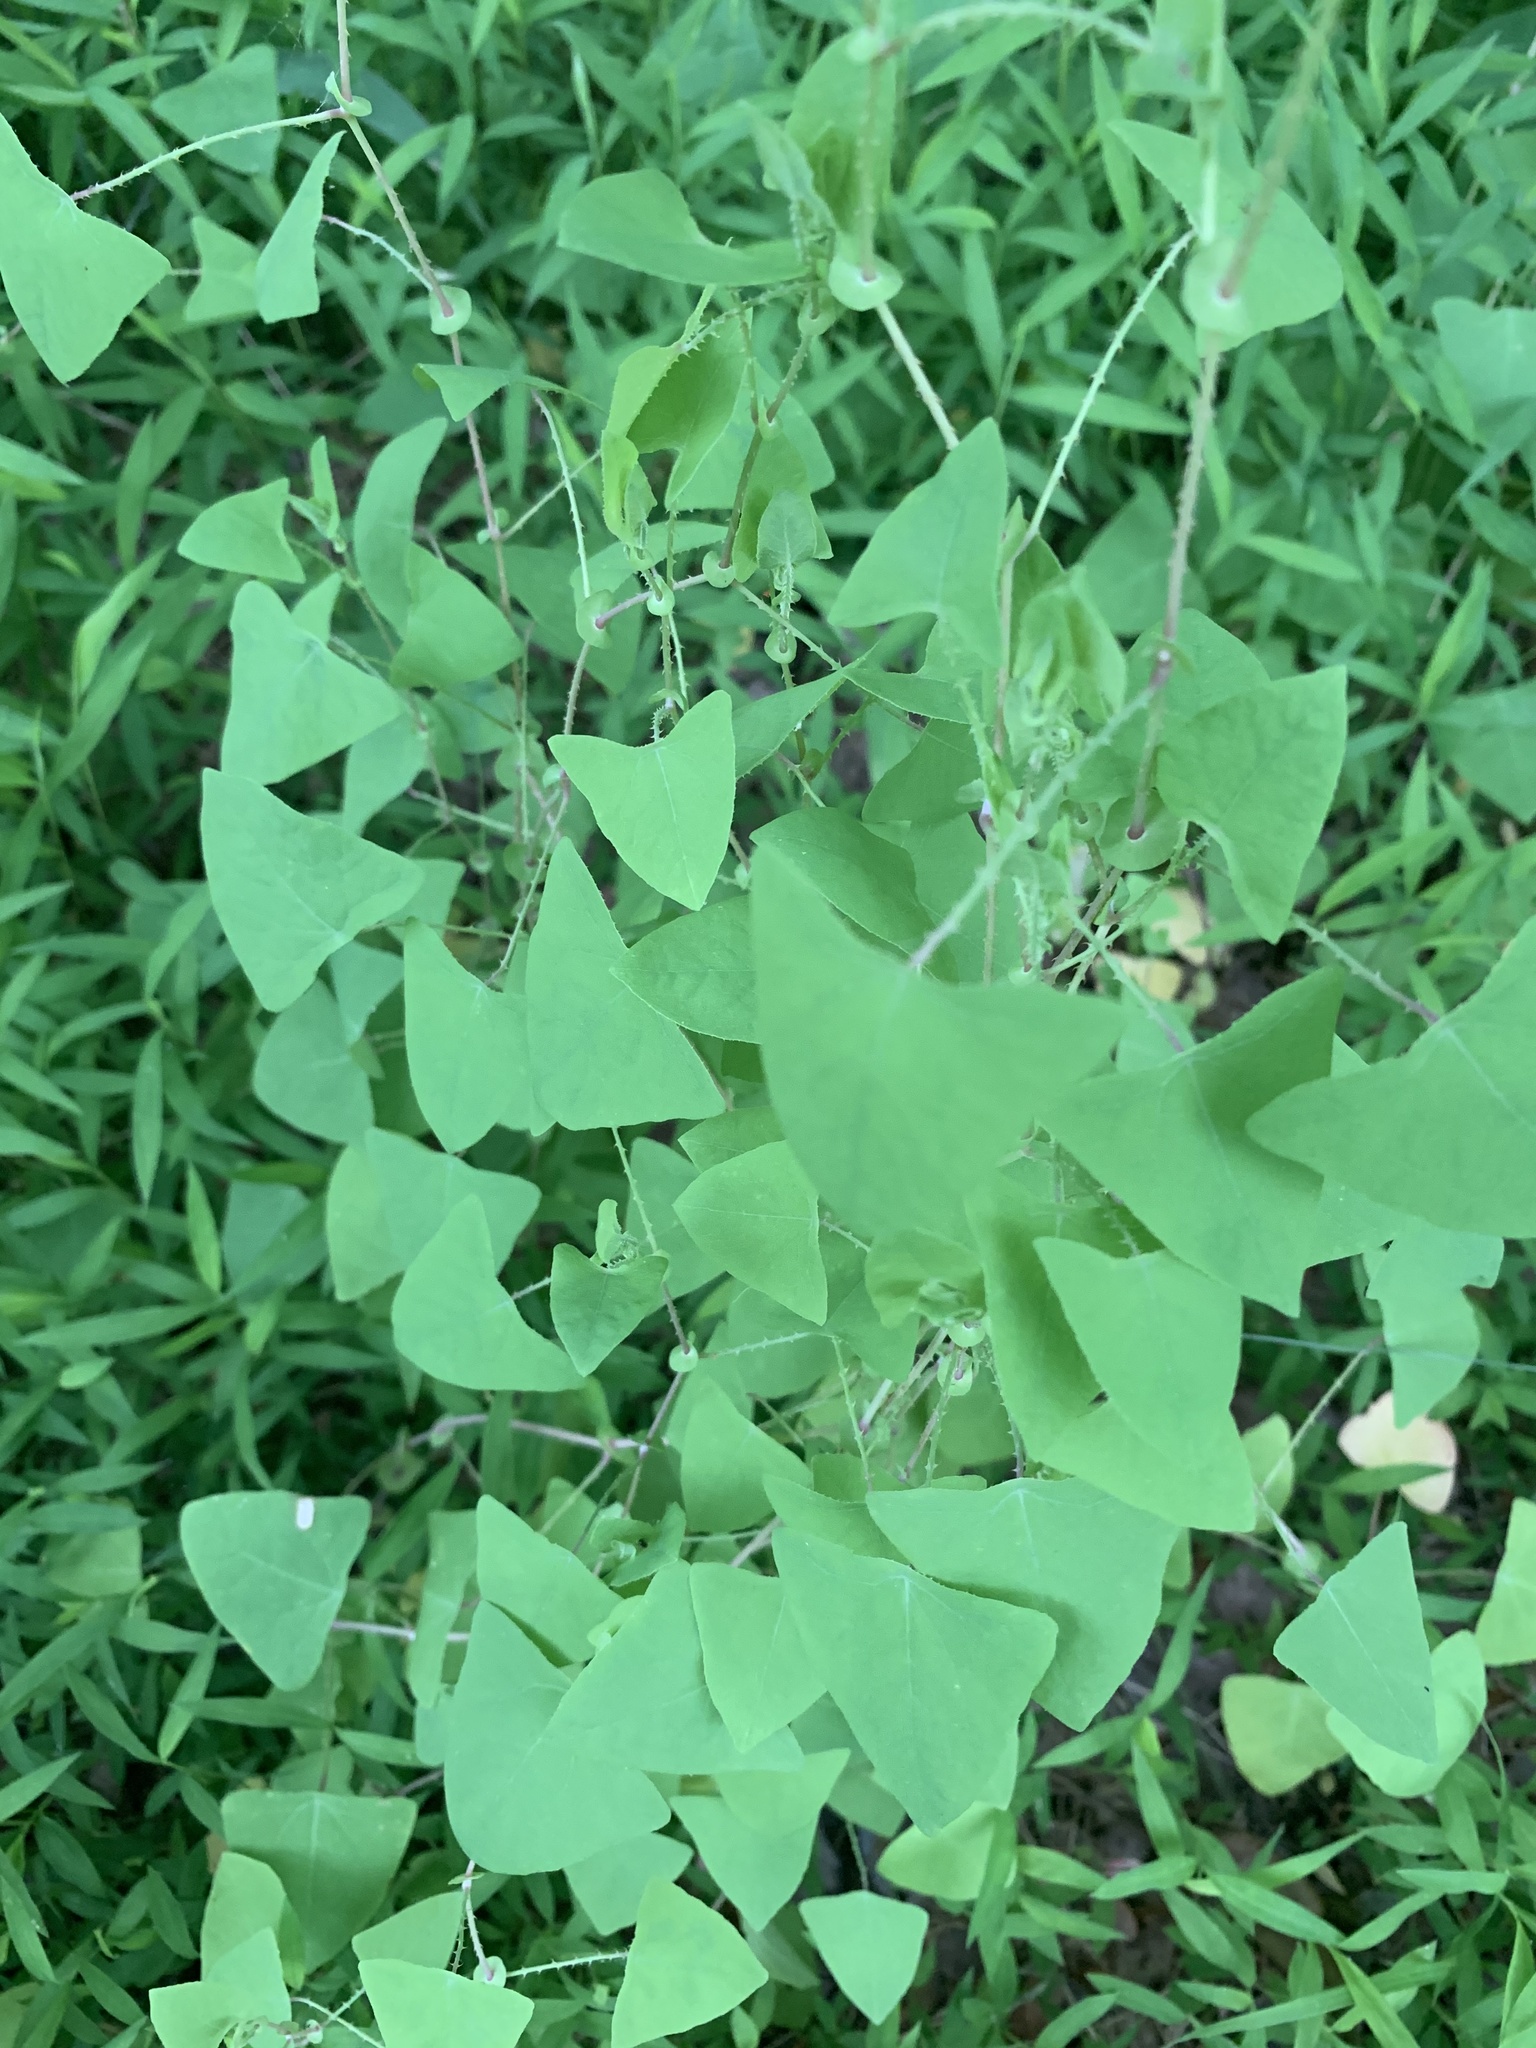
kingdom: Plantae
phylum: Tracheophyta
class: Magnoliopsida
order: Caryophyllales
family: Polygonaceae
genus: Persicaria
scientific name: Persicaria perfoliata
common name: Asiatic tearthumb
